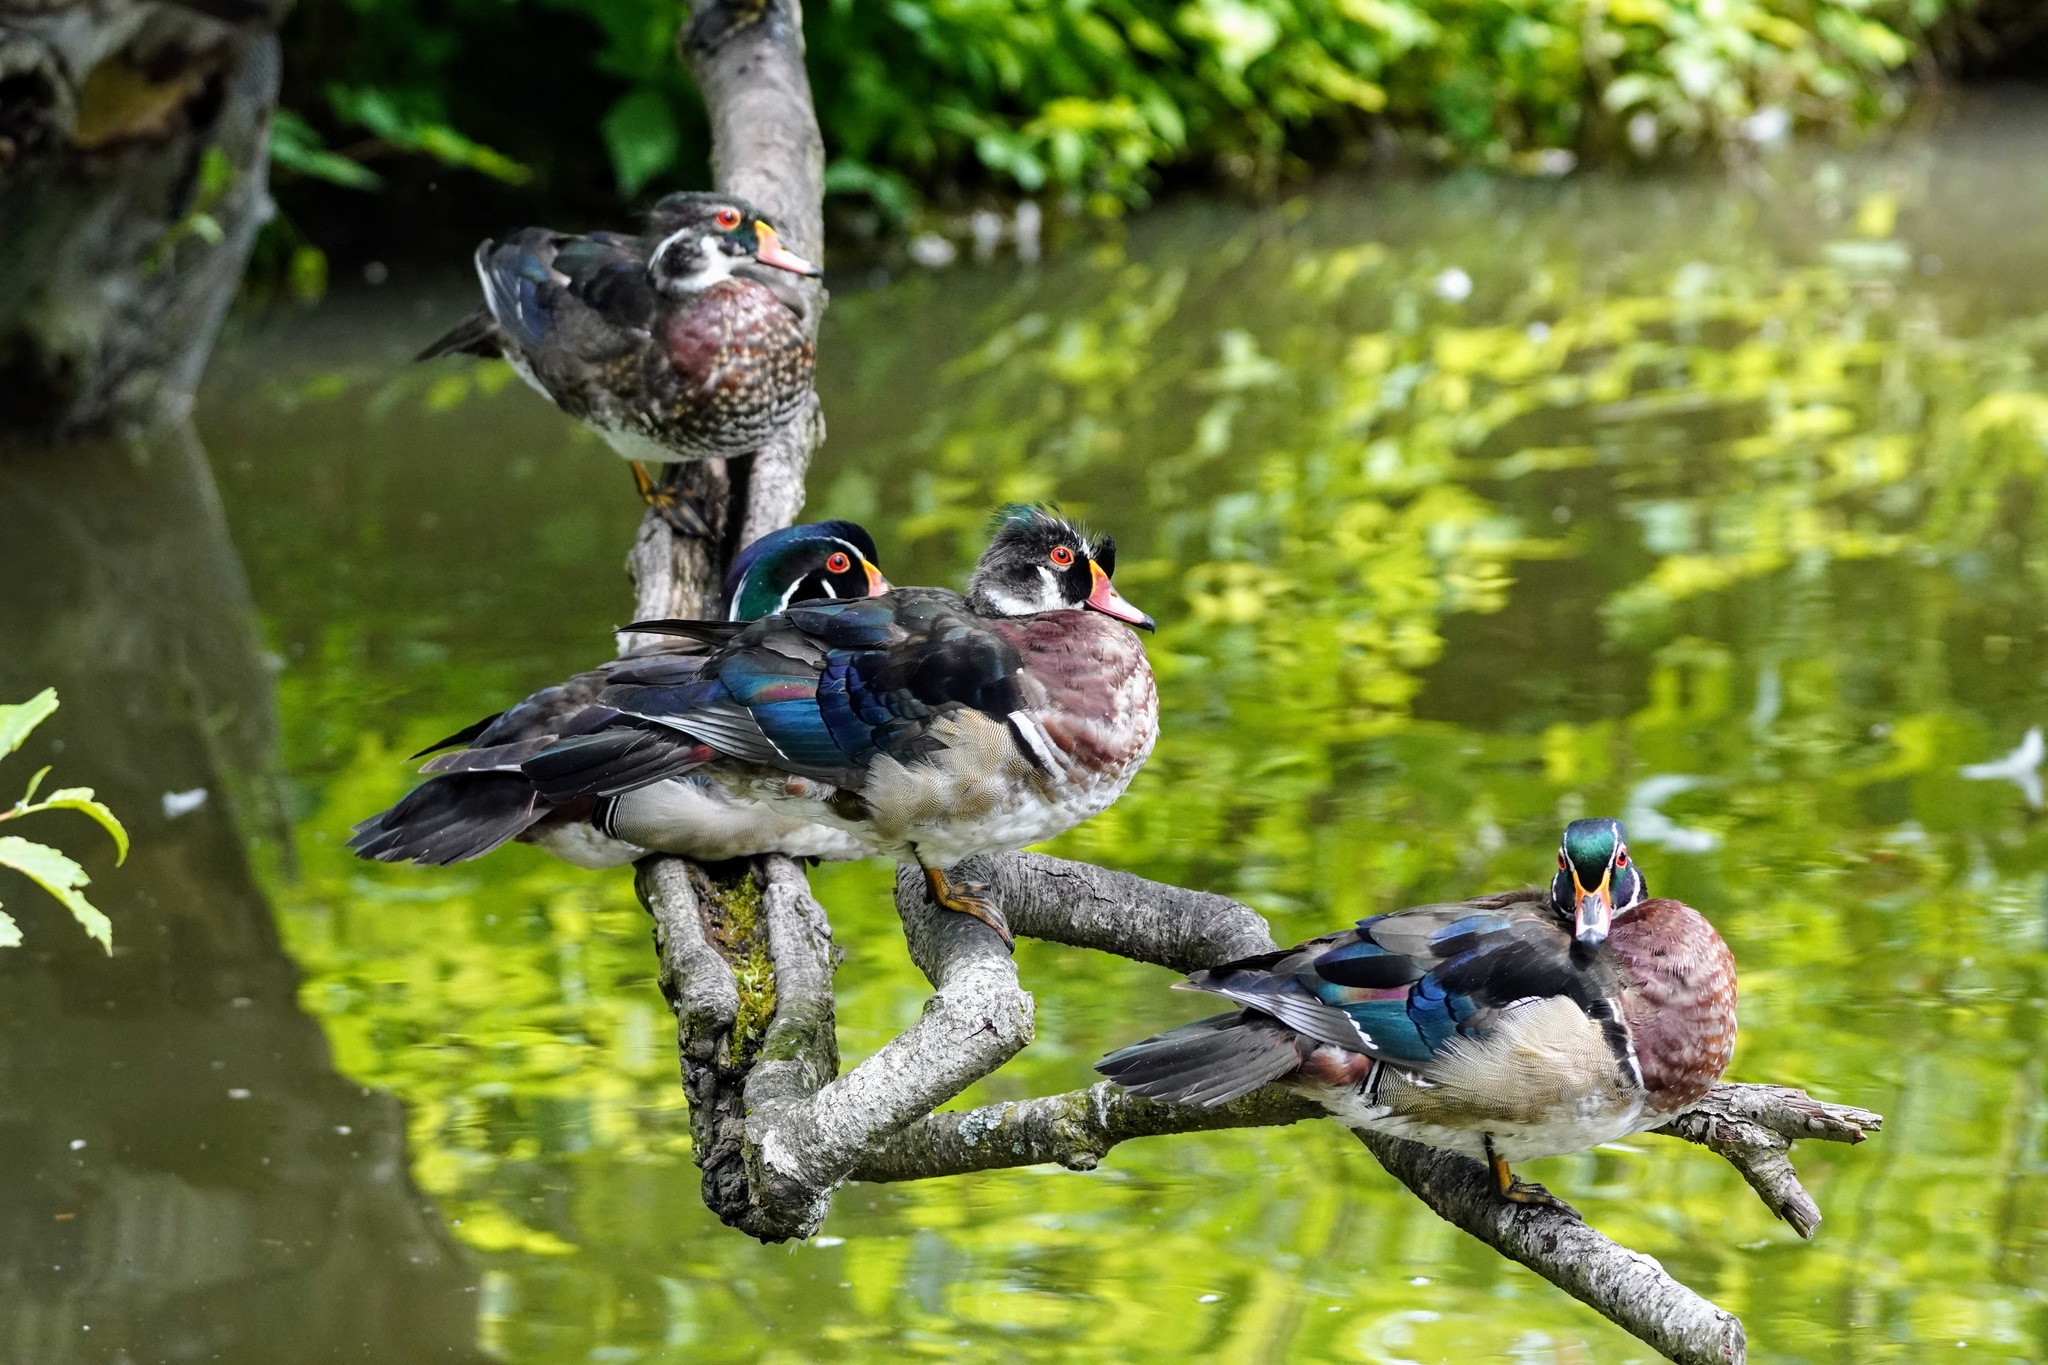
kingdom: Animalia
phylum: Chordata
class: Aves
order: Anseriformes
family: Anatidae
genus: Aix
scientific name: Aix sponsa
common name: Wood duck
